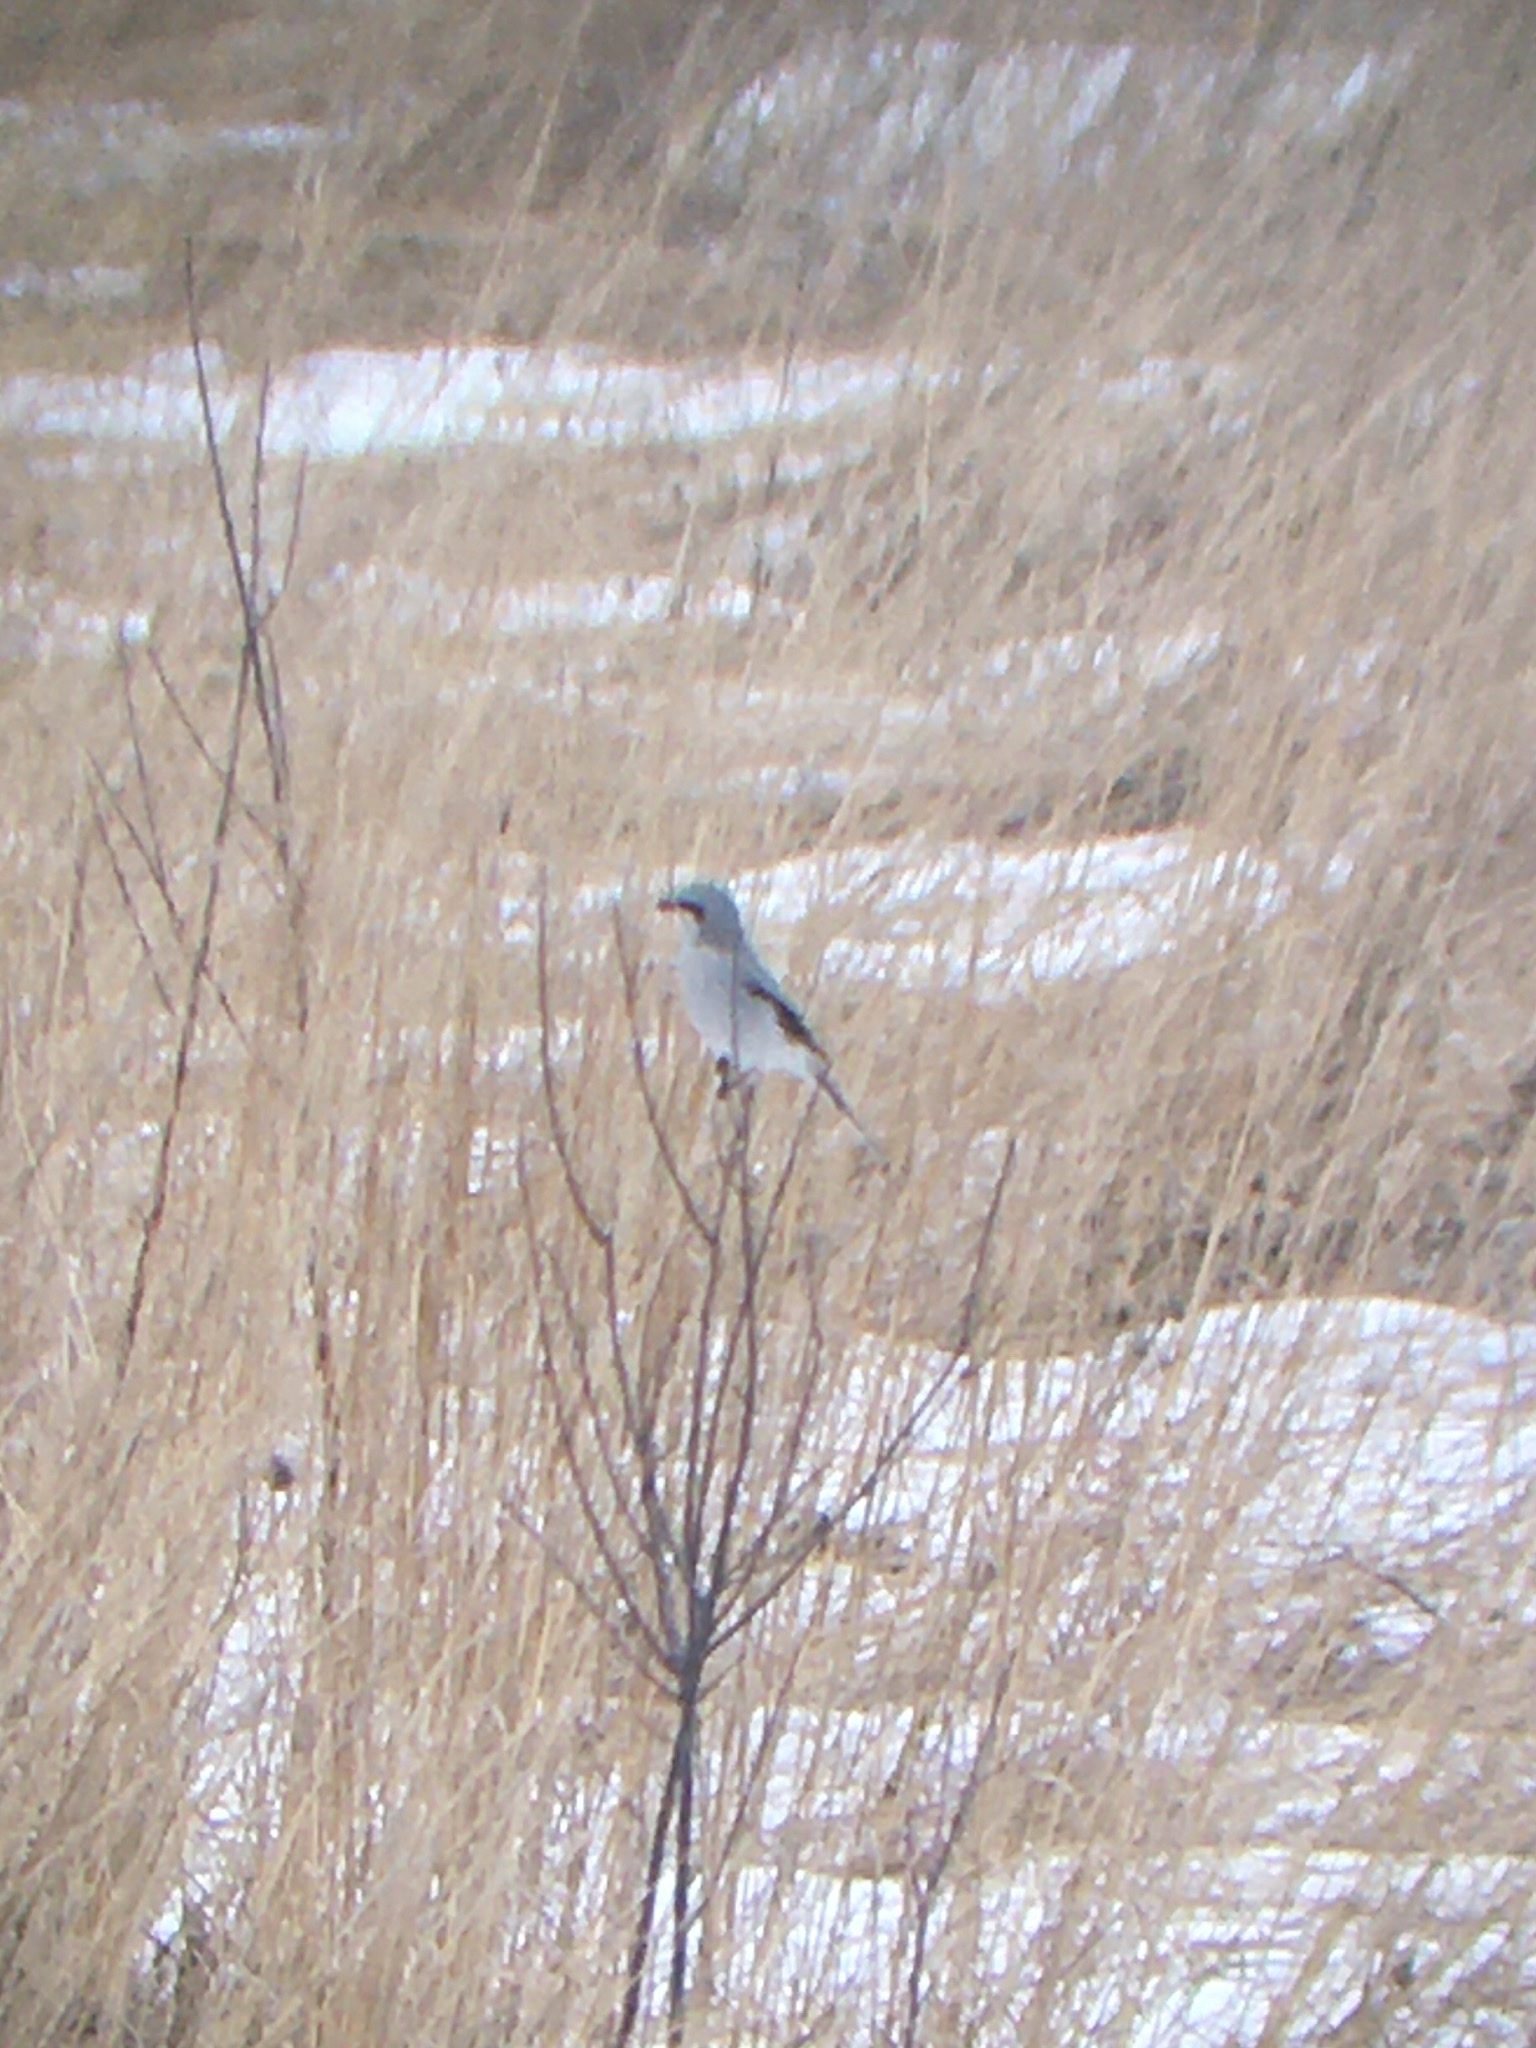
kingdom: Animalia
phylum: Chordata
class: Aves
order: Passeriformes
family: Laniidae
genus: Lanius
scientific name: Lanius borealis
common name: Northern shrike
